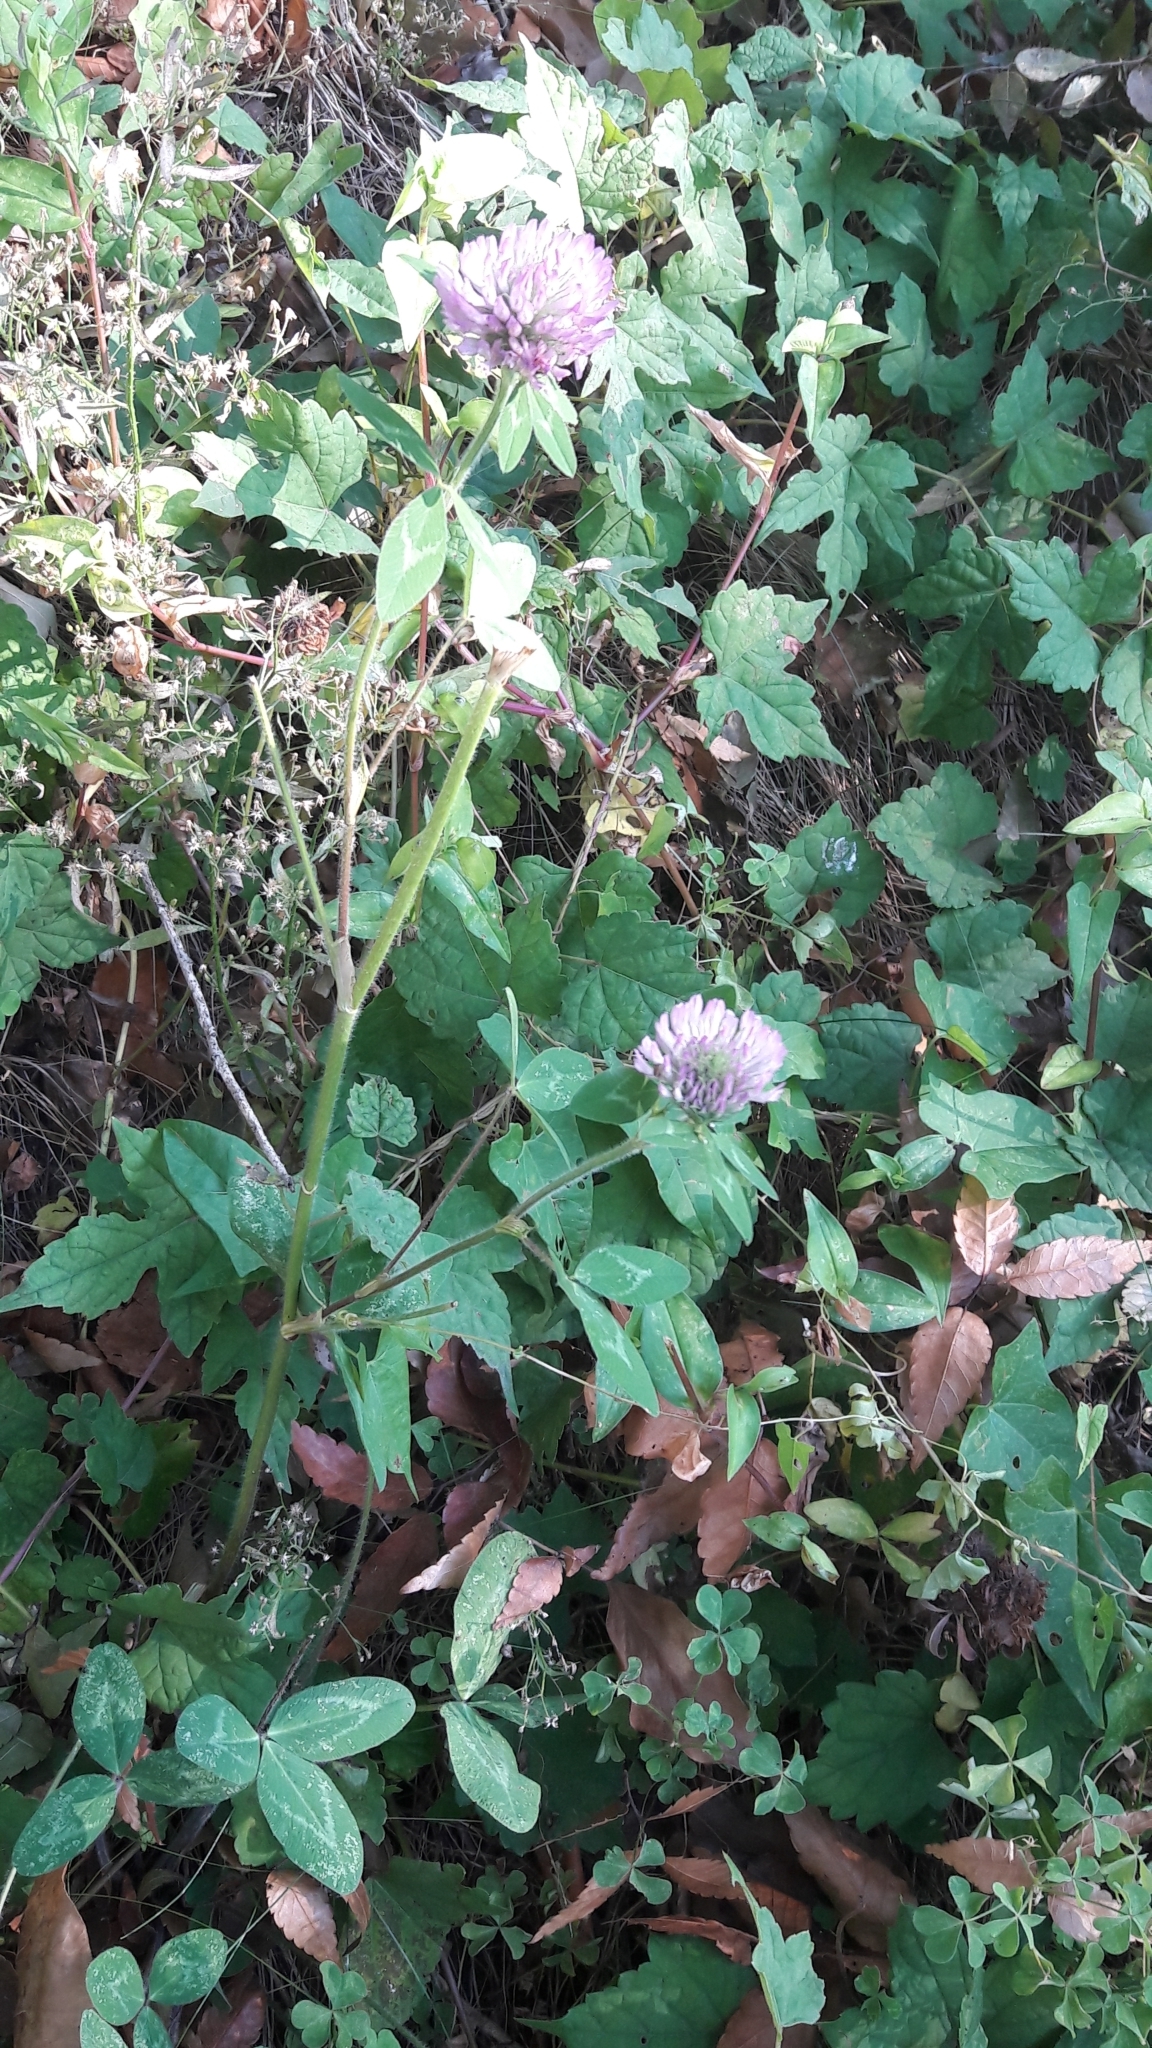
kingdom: Plantae
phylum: Tracheophyta
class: Magnoliopsida
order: Fabales
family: Fabaceae
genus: Trifolium
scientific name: Trifolium pratense
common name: Red clover
